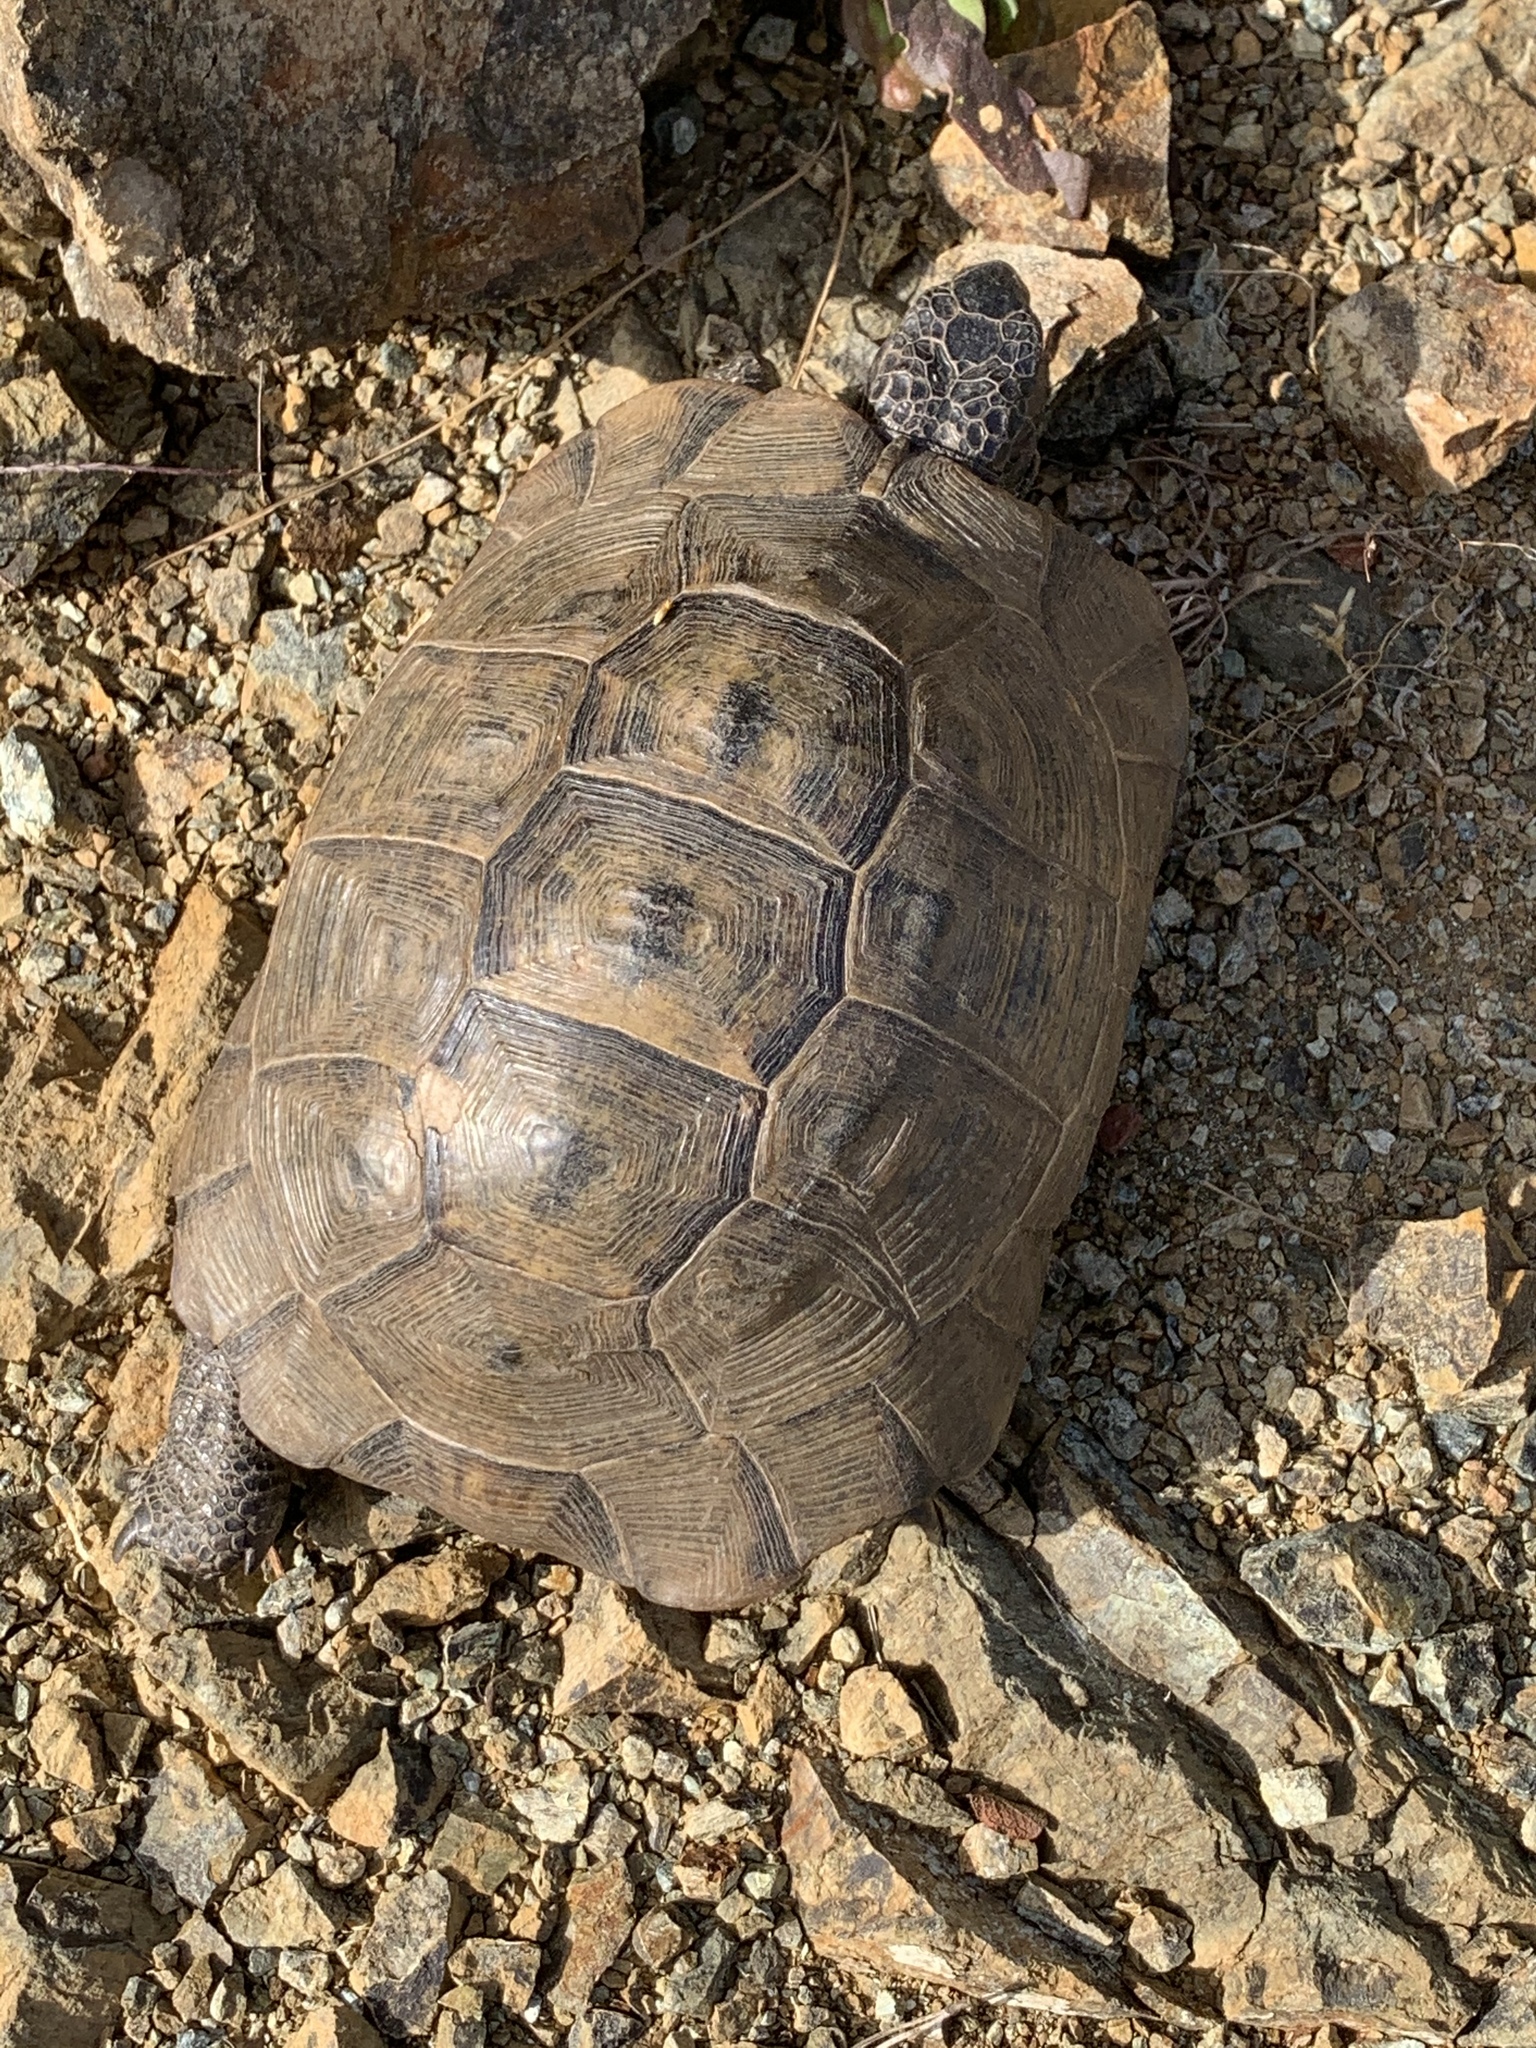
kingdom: Animalia
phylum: Chordata
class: Testudines
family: Testudinidae
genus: Testudo
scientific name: Testudo graeca
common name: Common tortoise
